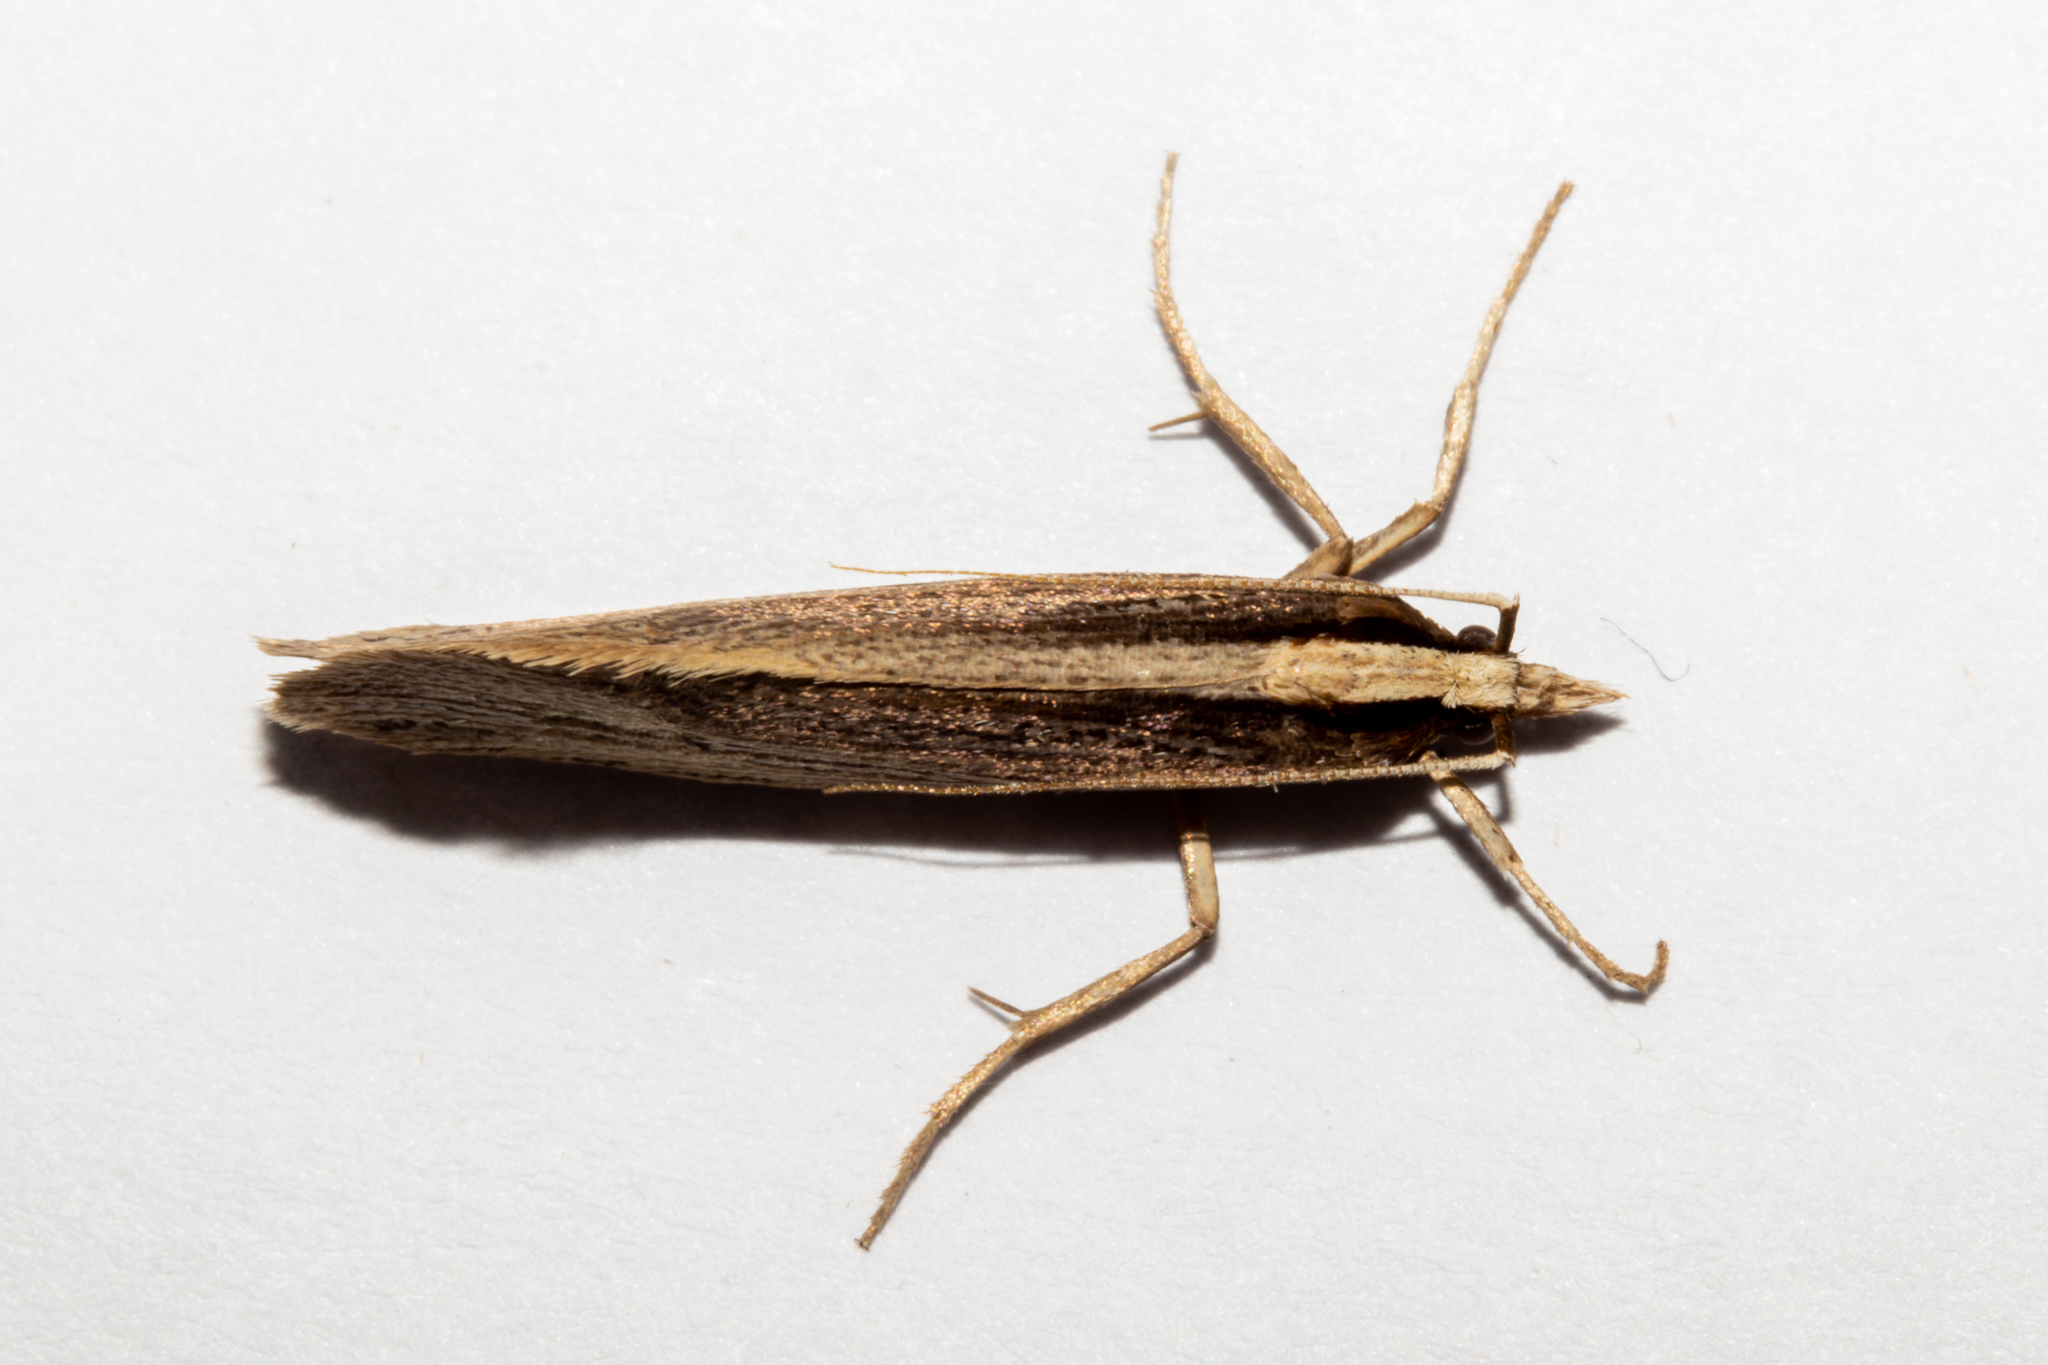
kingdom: Animalia
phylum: Arthropoda
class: Insecta
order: Lepidoptera
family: Plutellidae
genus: Proditrix
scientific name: Proditrix megalynta
